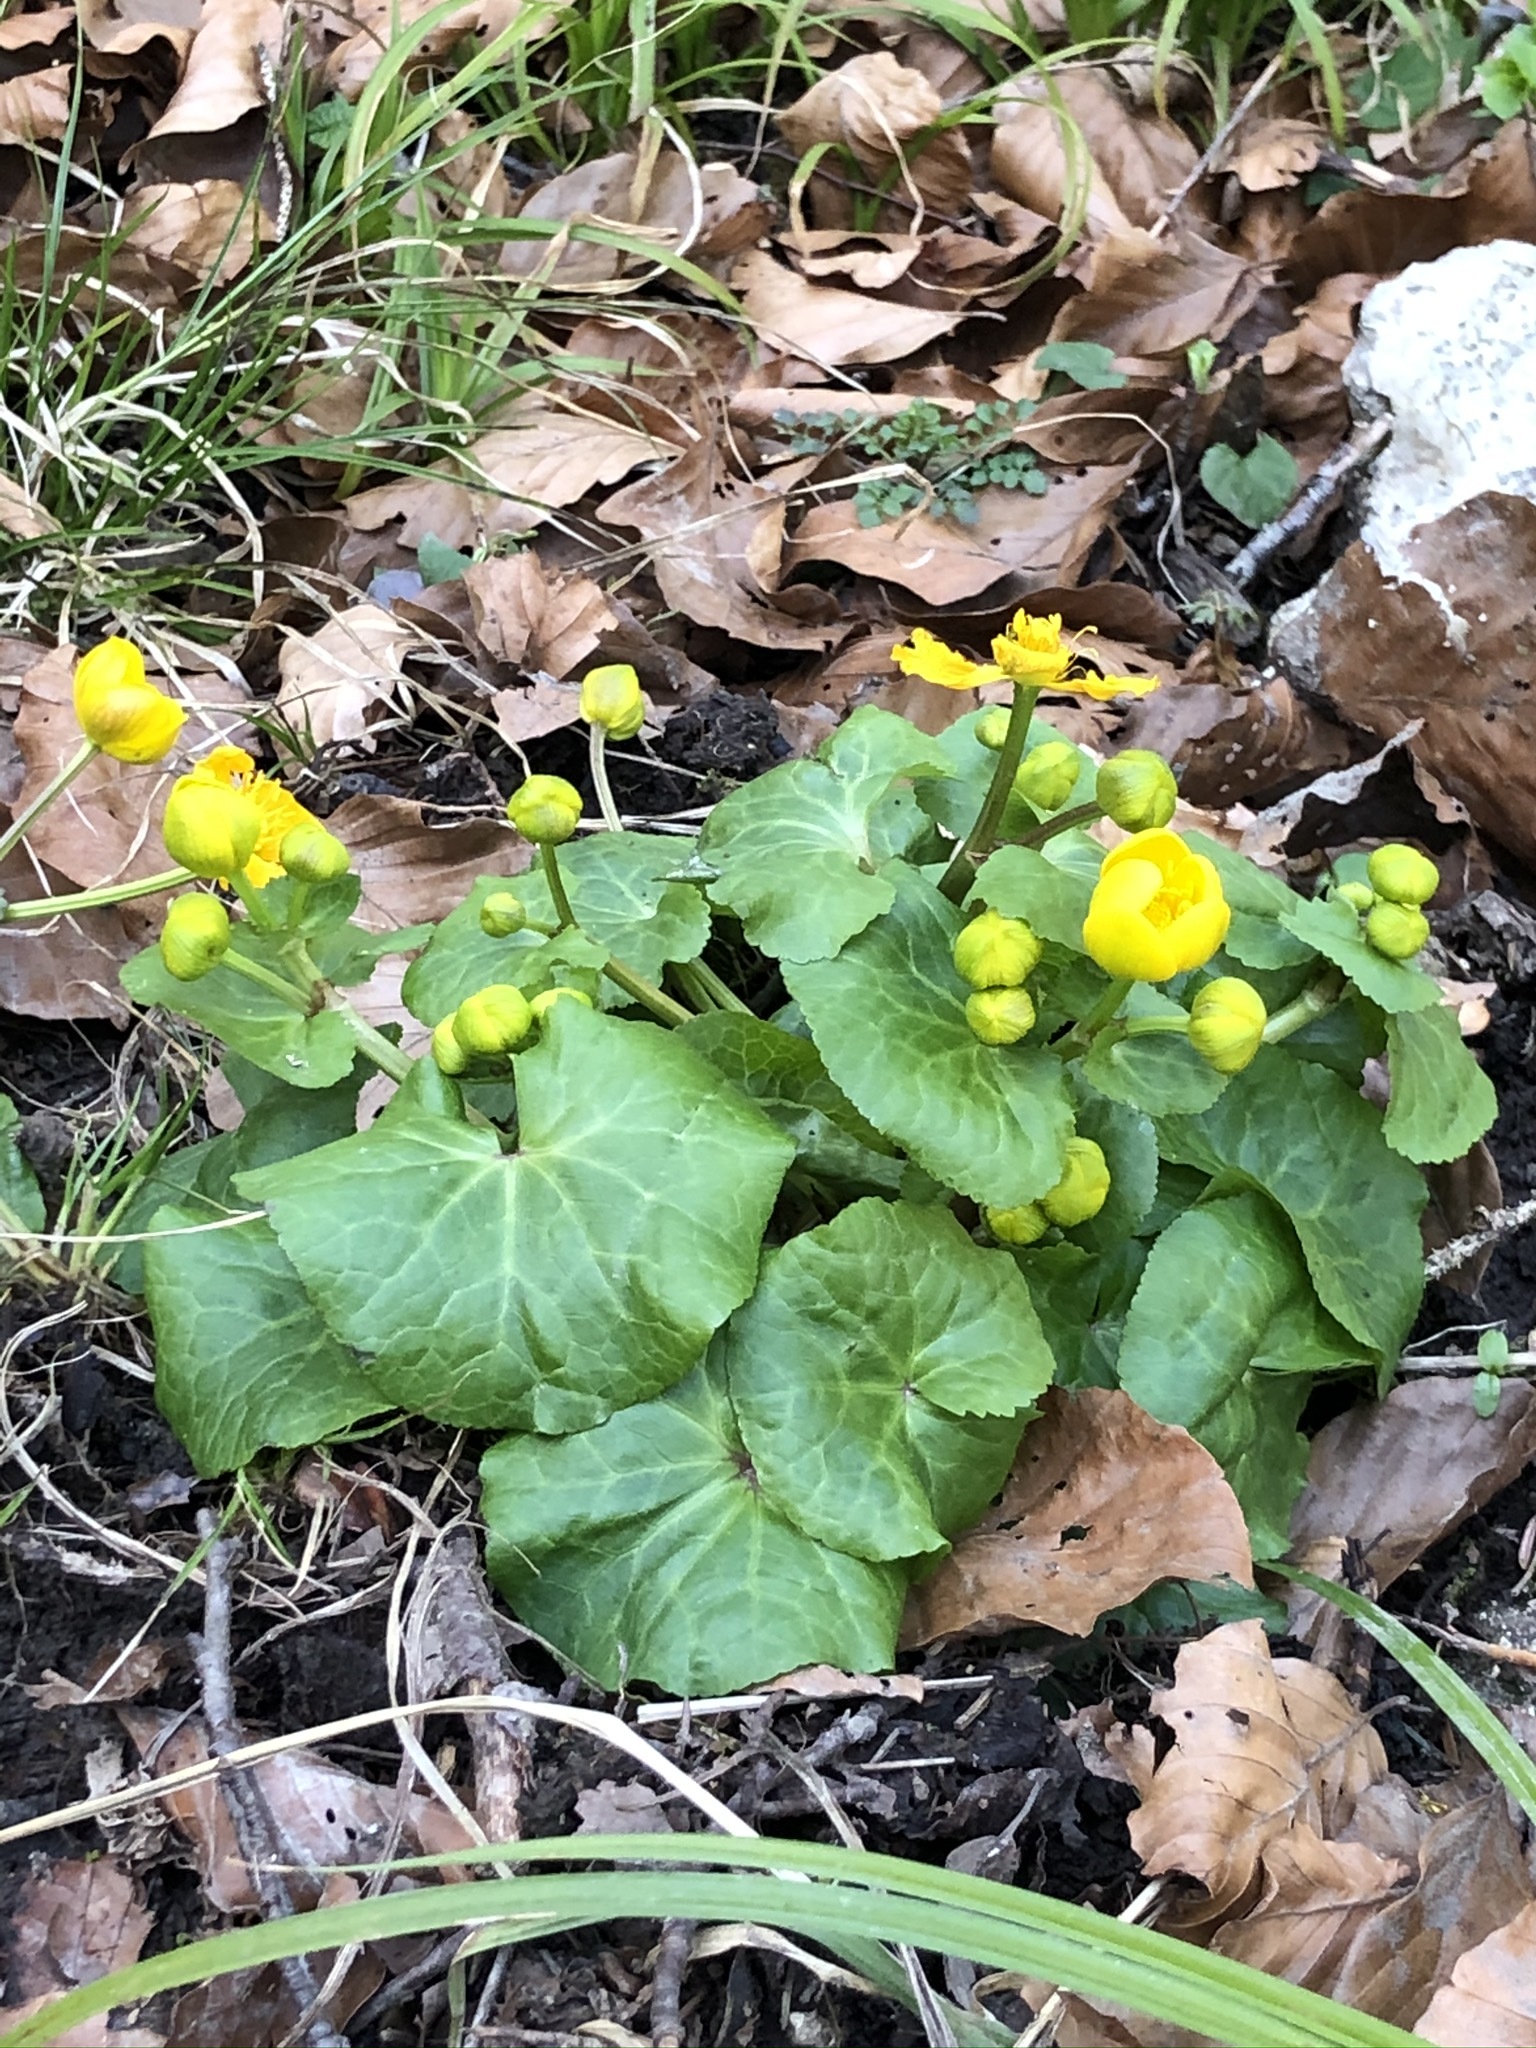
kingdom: Plantae
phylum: Tracheophyta
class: Magnoliopsida
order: Ranunculales
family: Ranunculaceae
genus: Caltha
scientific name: Caltha palustris
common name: Marsh marigold
